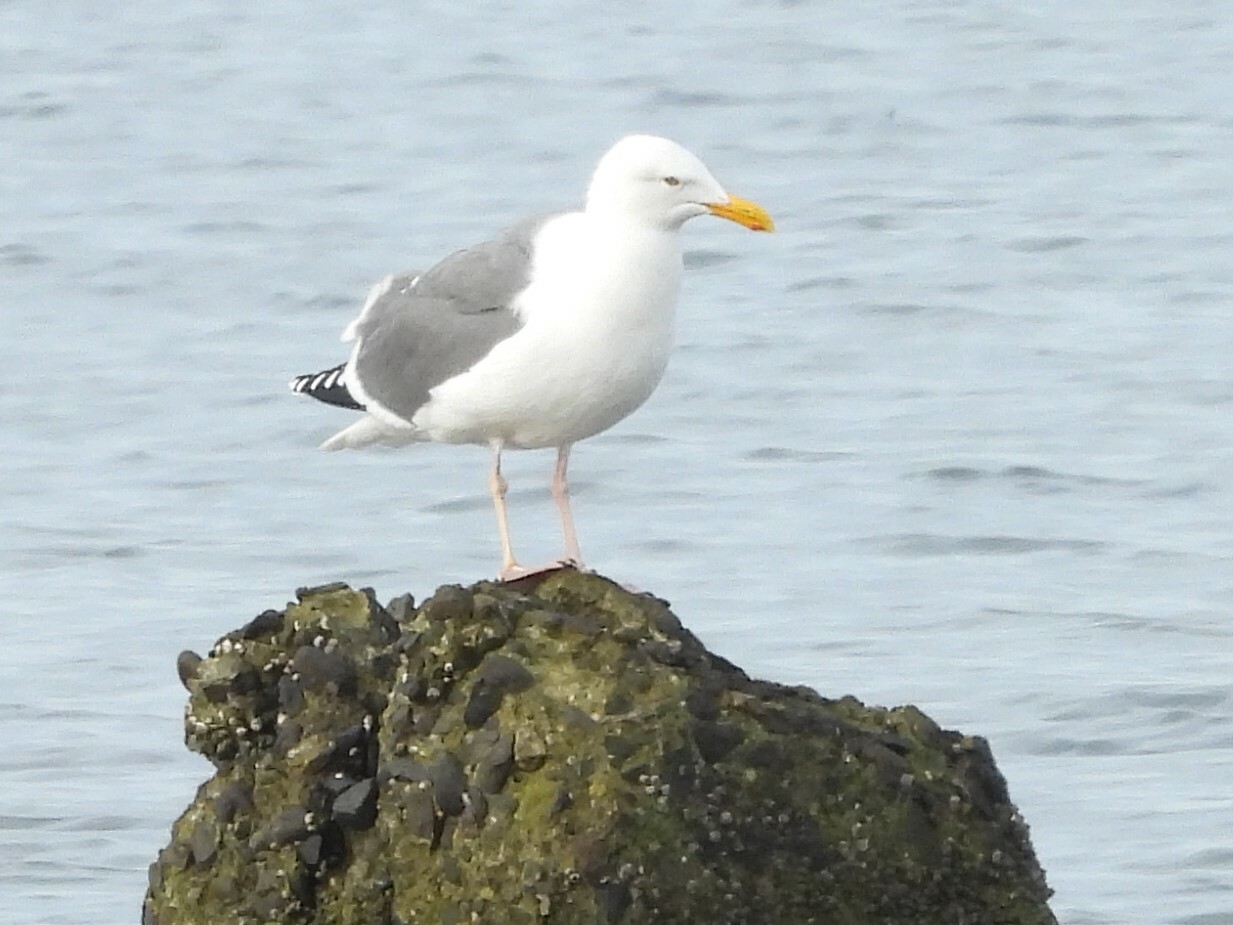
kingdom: Animalia
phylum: Chordata
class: Aves
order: Charadriiformes
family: Laridae
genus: Larus
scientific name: Larus occidentalis
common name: Western gull
